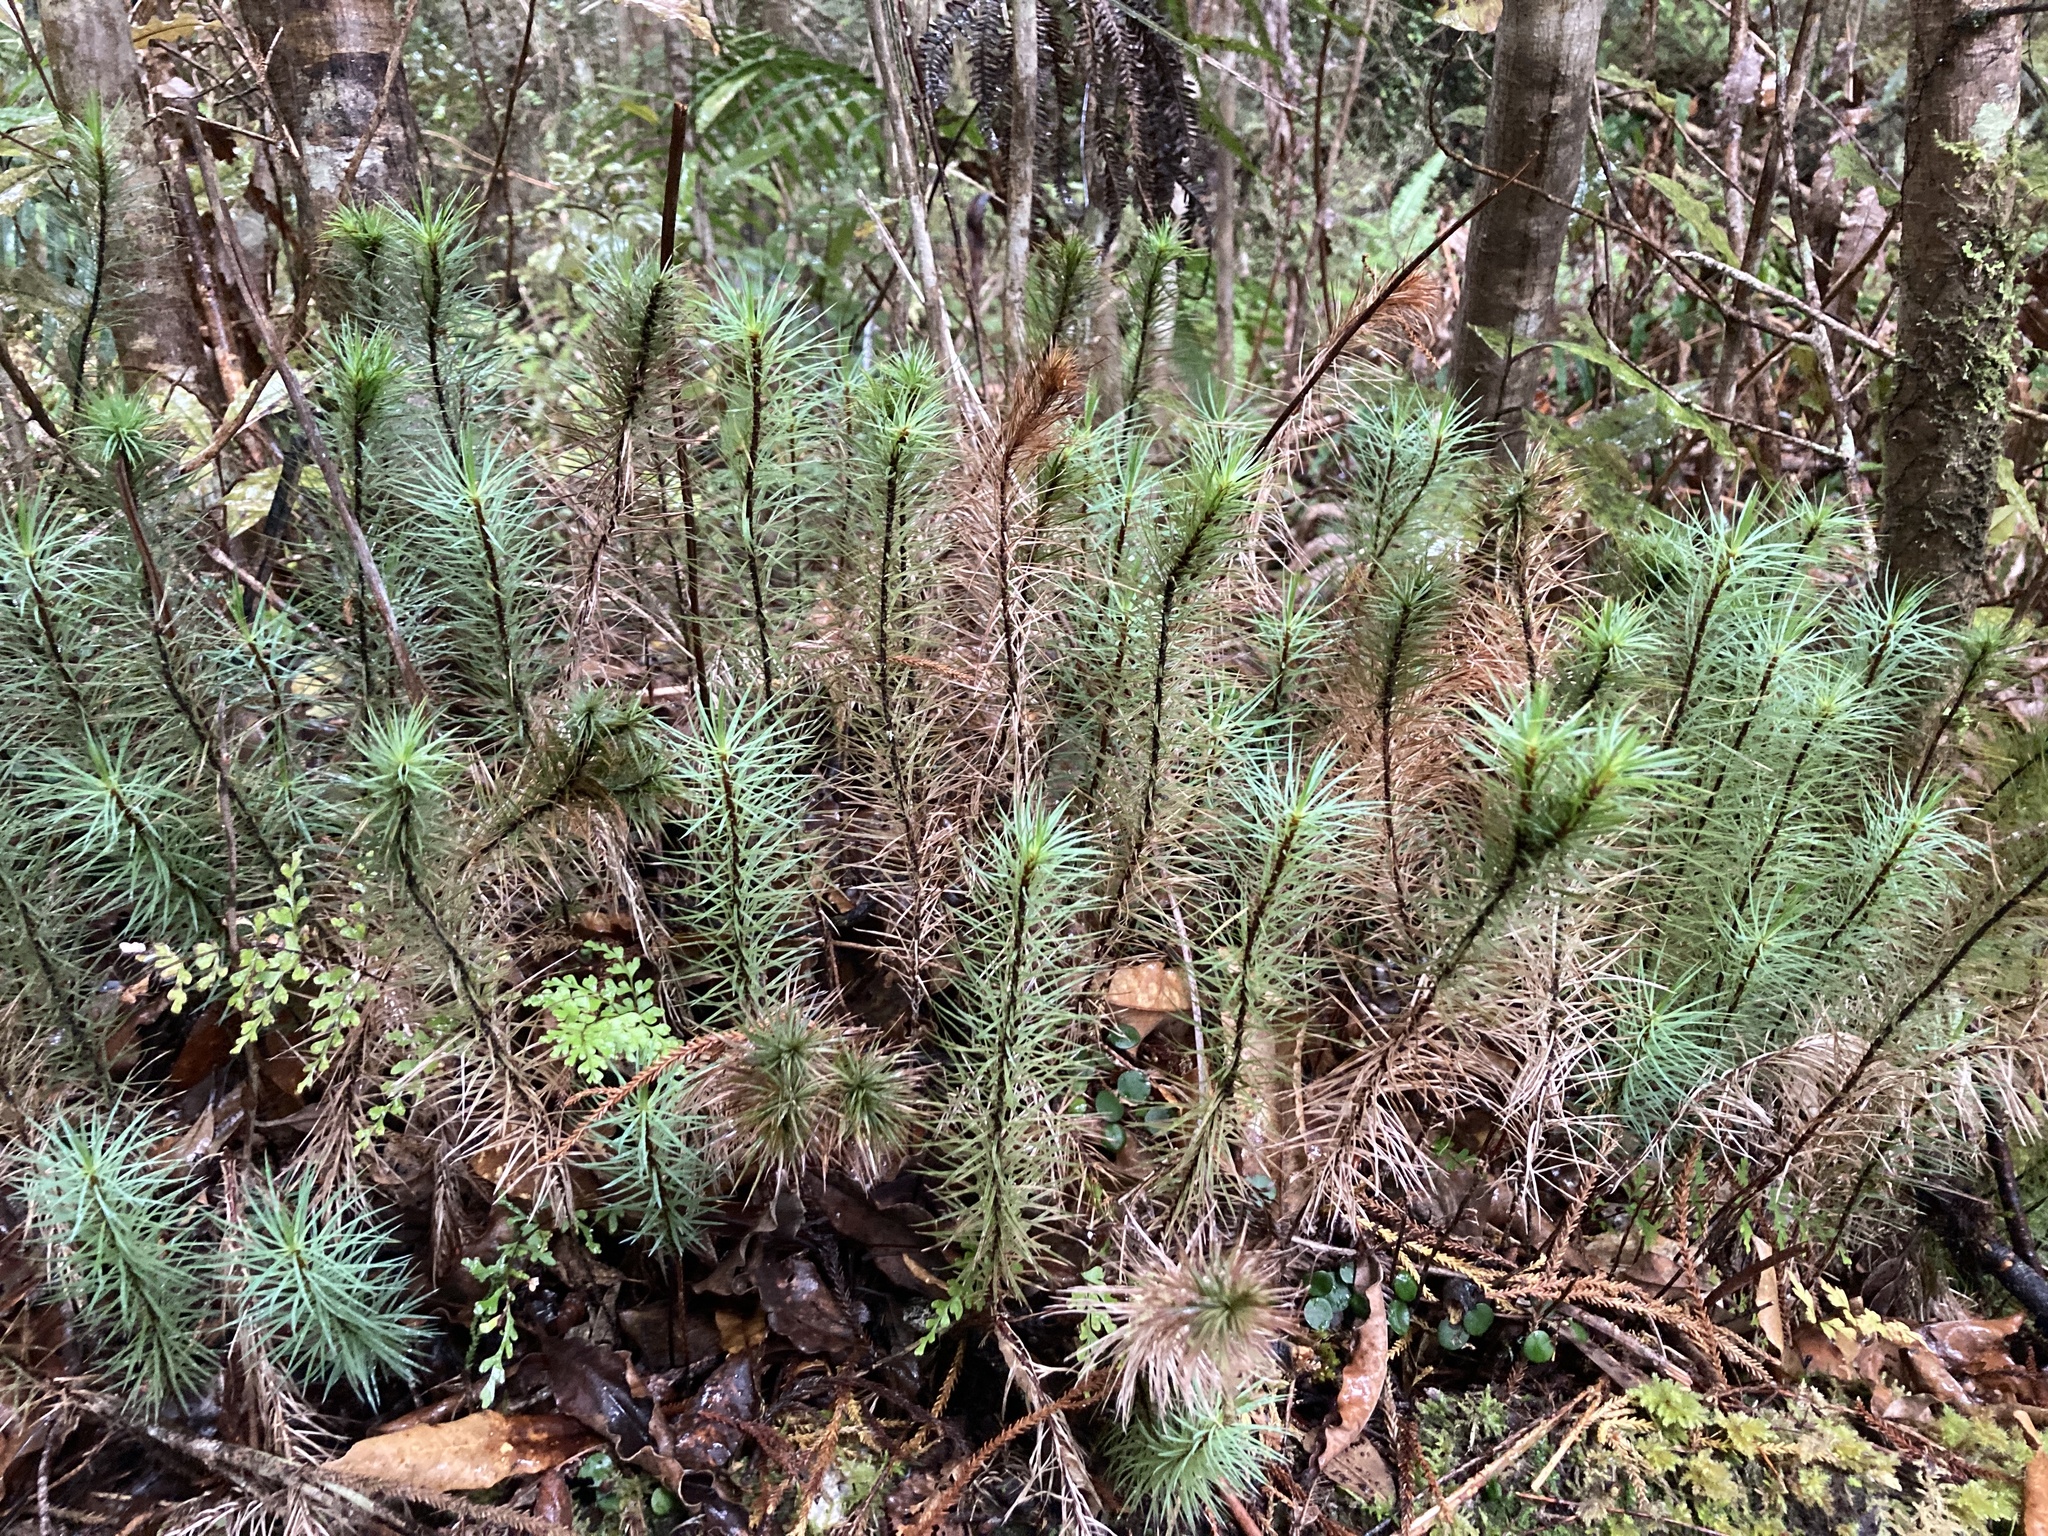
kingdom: Plantae
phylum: Bryophyta
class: Polytrichopsida
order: Polytrichales
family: Polytrichaceae
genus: Dawsonia
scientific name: Dawsonia superba
